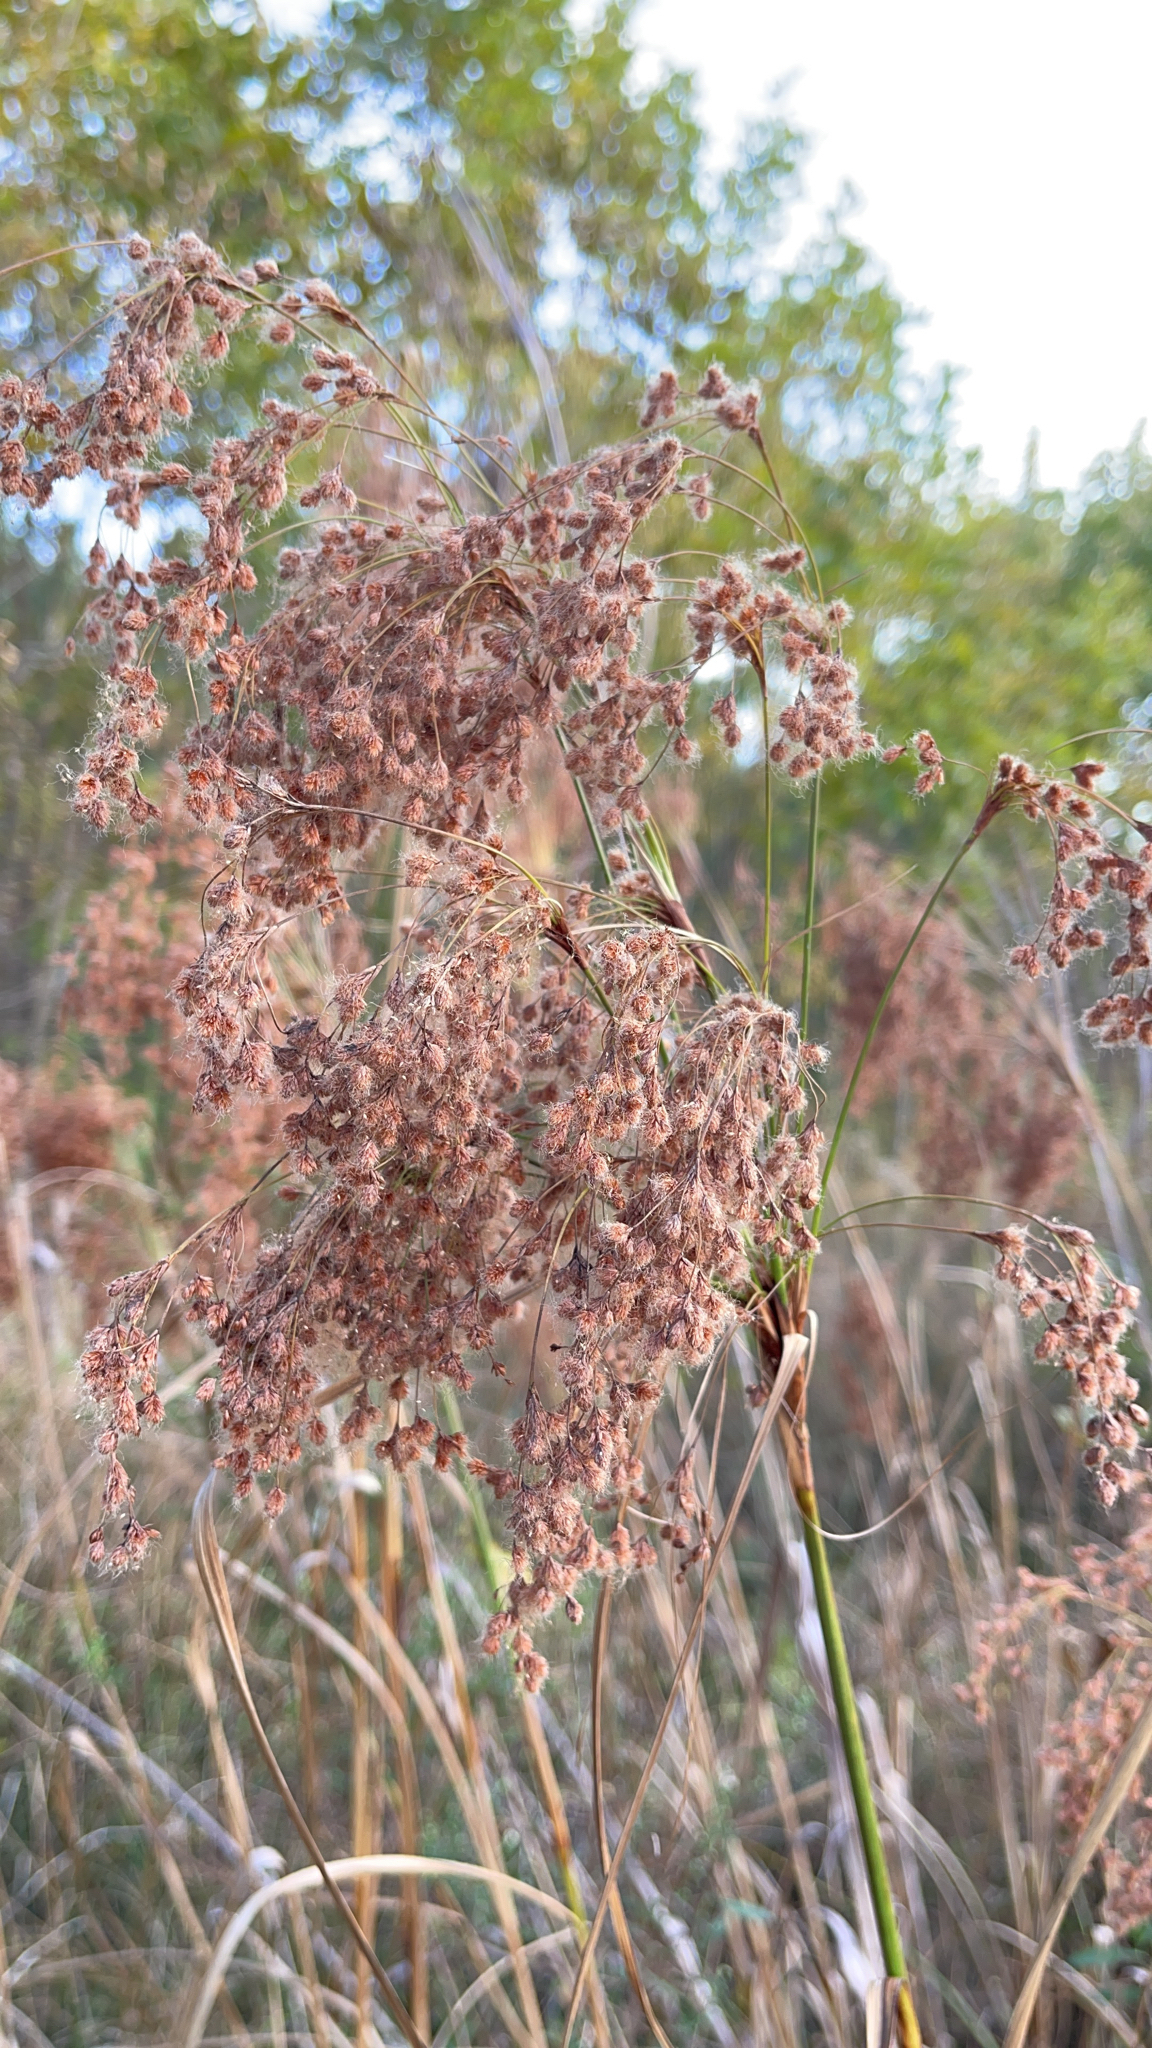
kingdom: Plantae
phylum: Tracheophyta
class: Liliopsida
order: Poales
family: Cyperaceae
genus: Scirpus
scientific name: Scirpus cyperinus
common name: Black-sheathed bulrush
